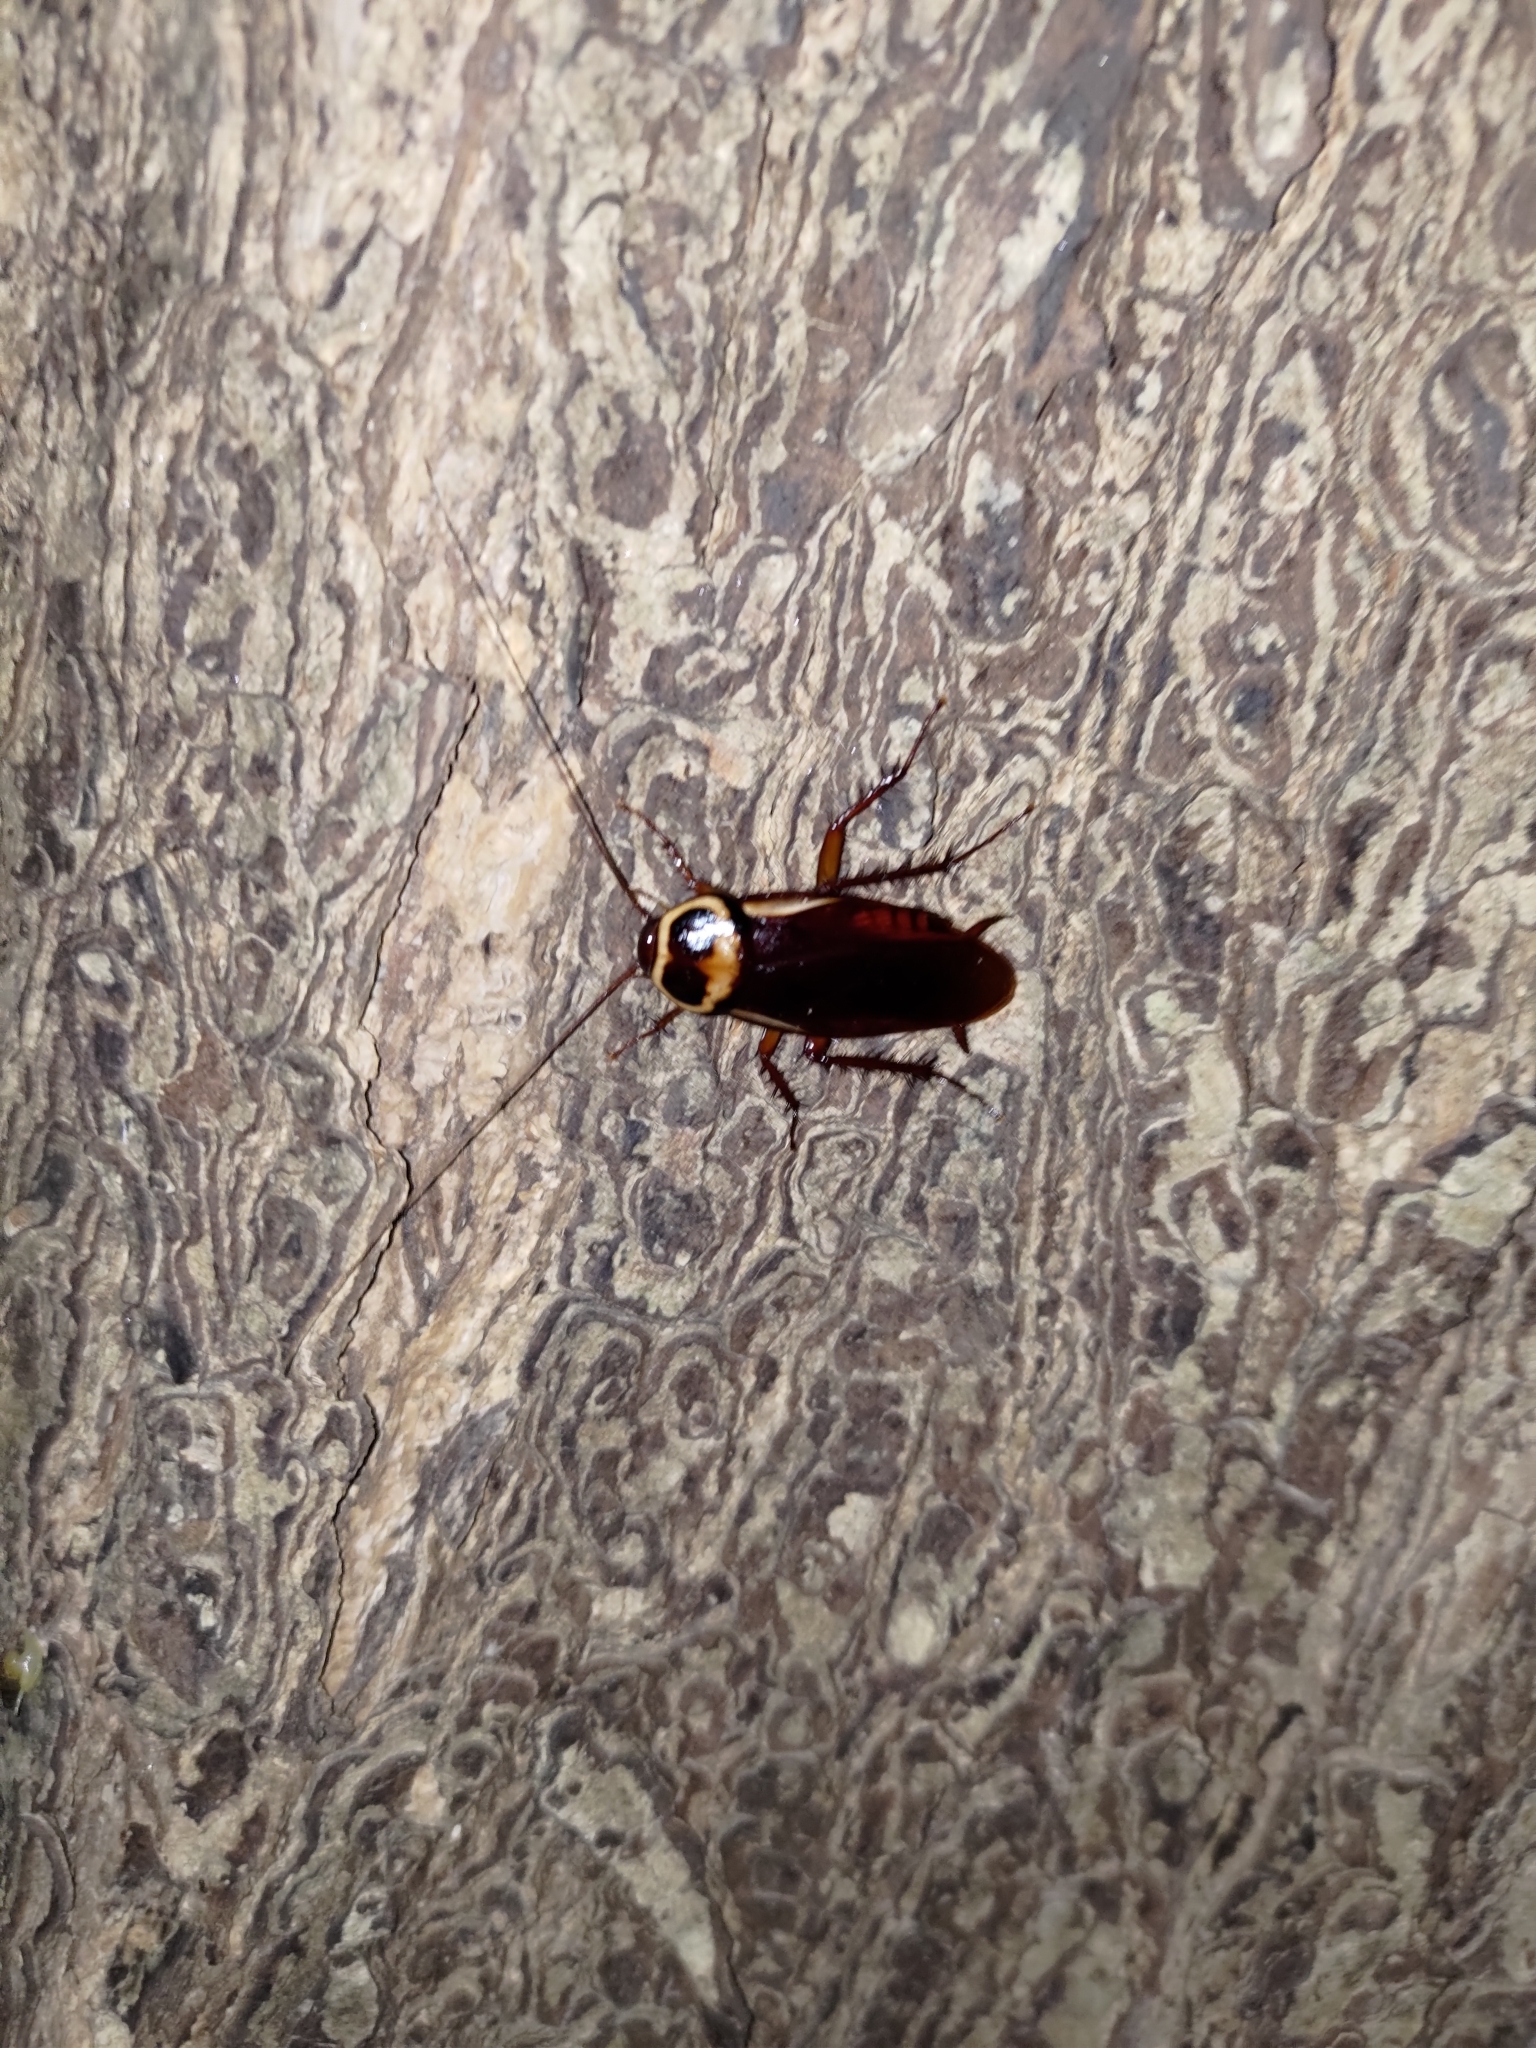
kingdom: Animalia
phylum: Arthropoda
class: Insecta
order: Blattodea
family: Blattidae
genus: Periplaneta
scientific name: Periplaneta australasiae
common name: Australian cockroach
